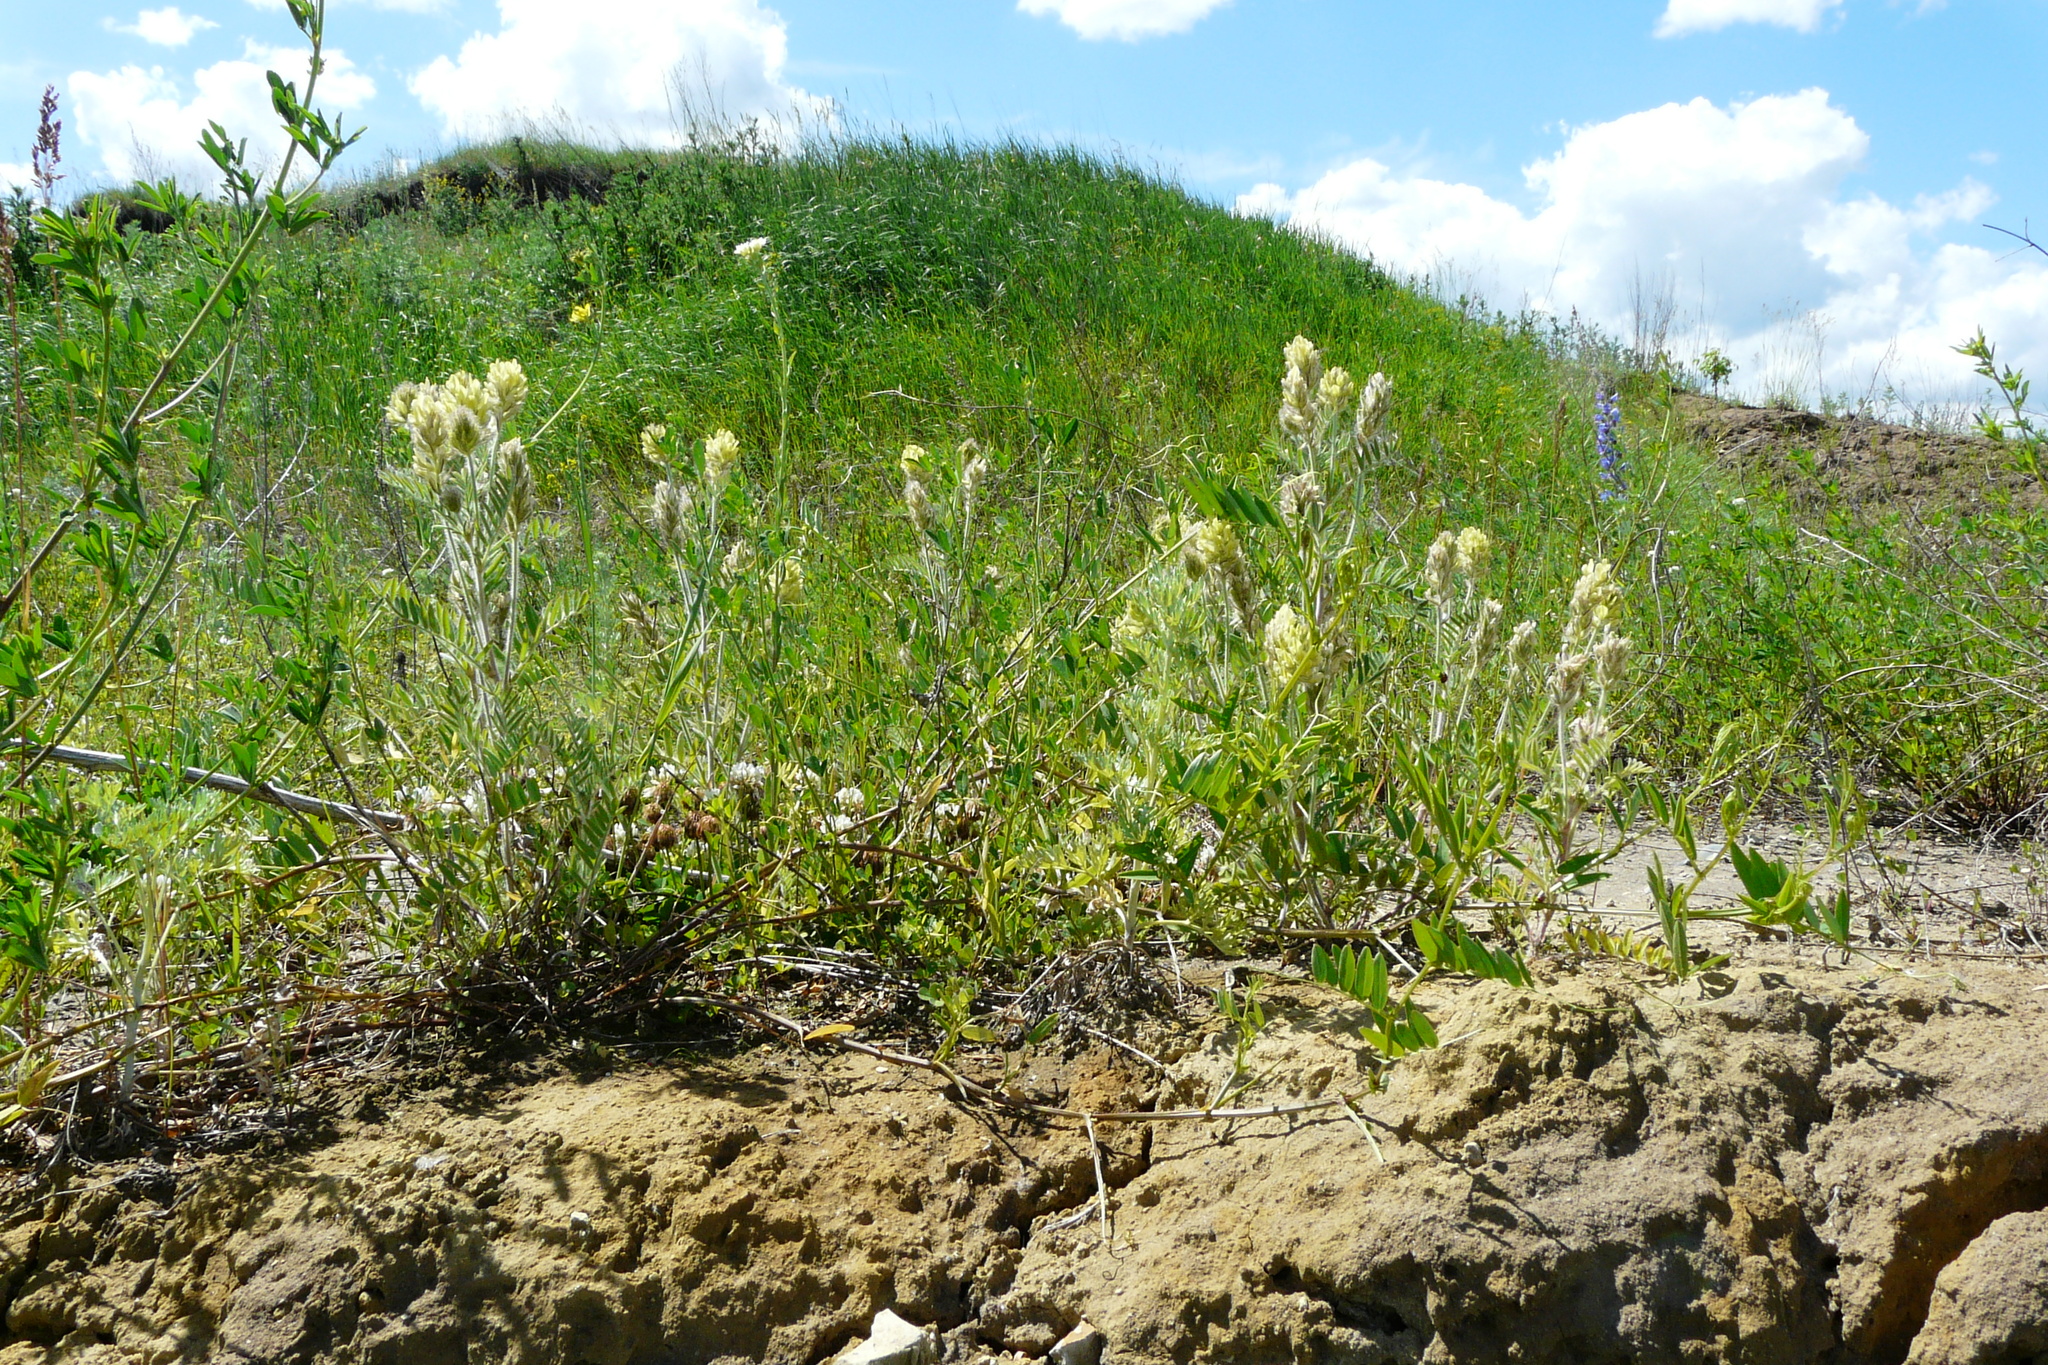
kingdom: Plantae
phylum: Tracheophyta
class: Magnoliopsida
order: Fabales
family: Fabaceae
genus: Oxytropis
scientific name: Oxytropis pilosa
